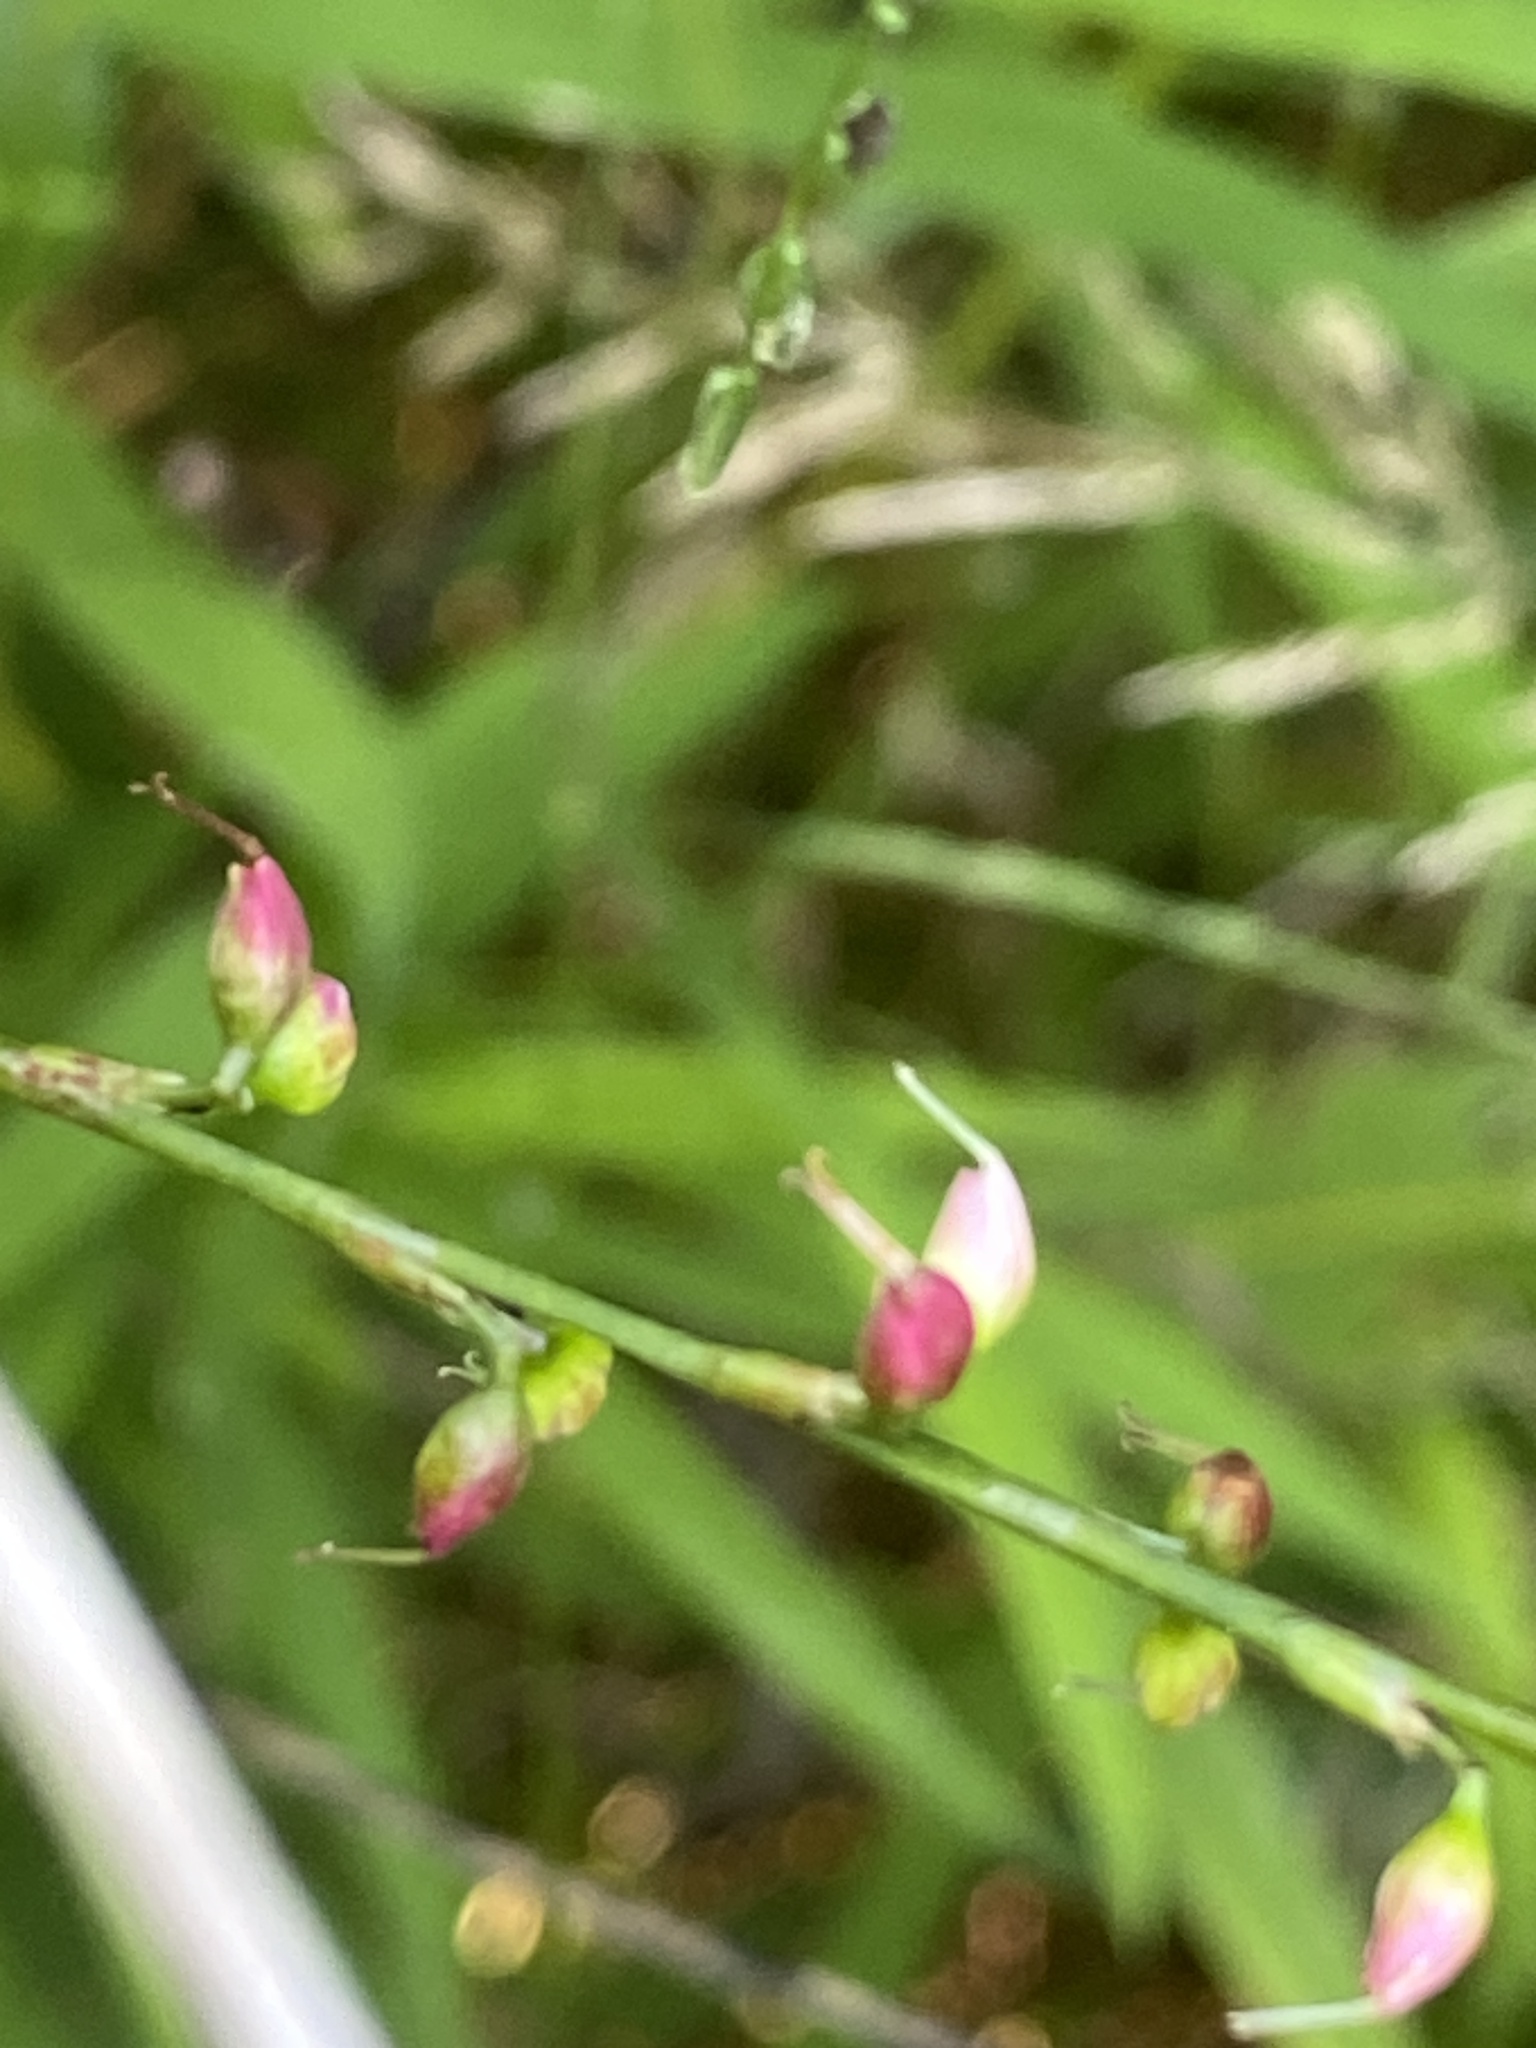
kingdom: Plantae
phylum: Tracheophyta
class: Magnoliopsida
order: Caryophyllales
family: Polygonaceae
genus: Persicaria
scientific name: Persicaria virginiana
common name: Jumpseed
